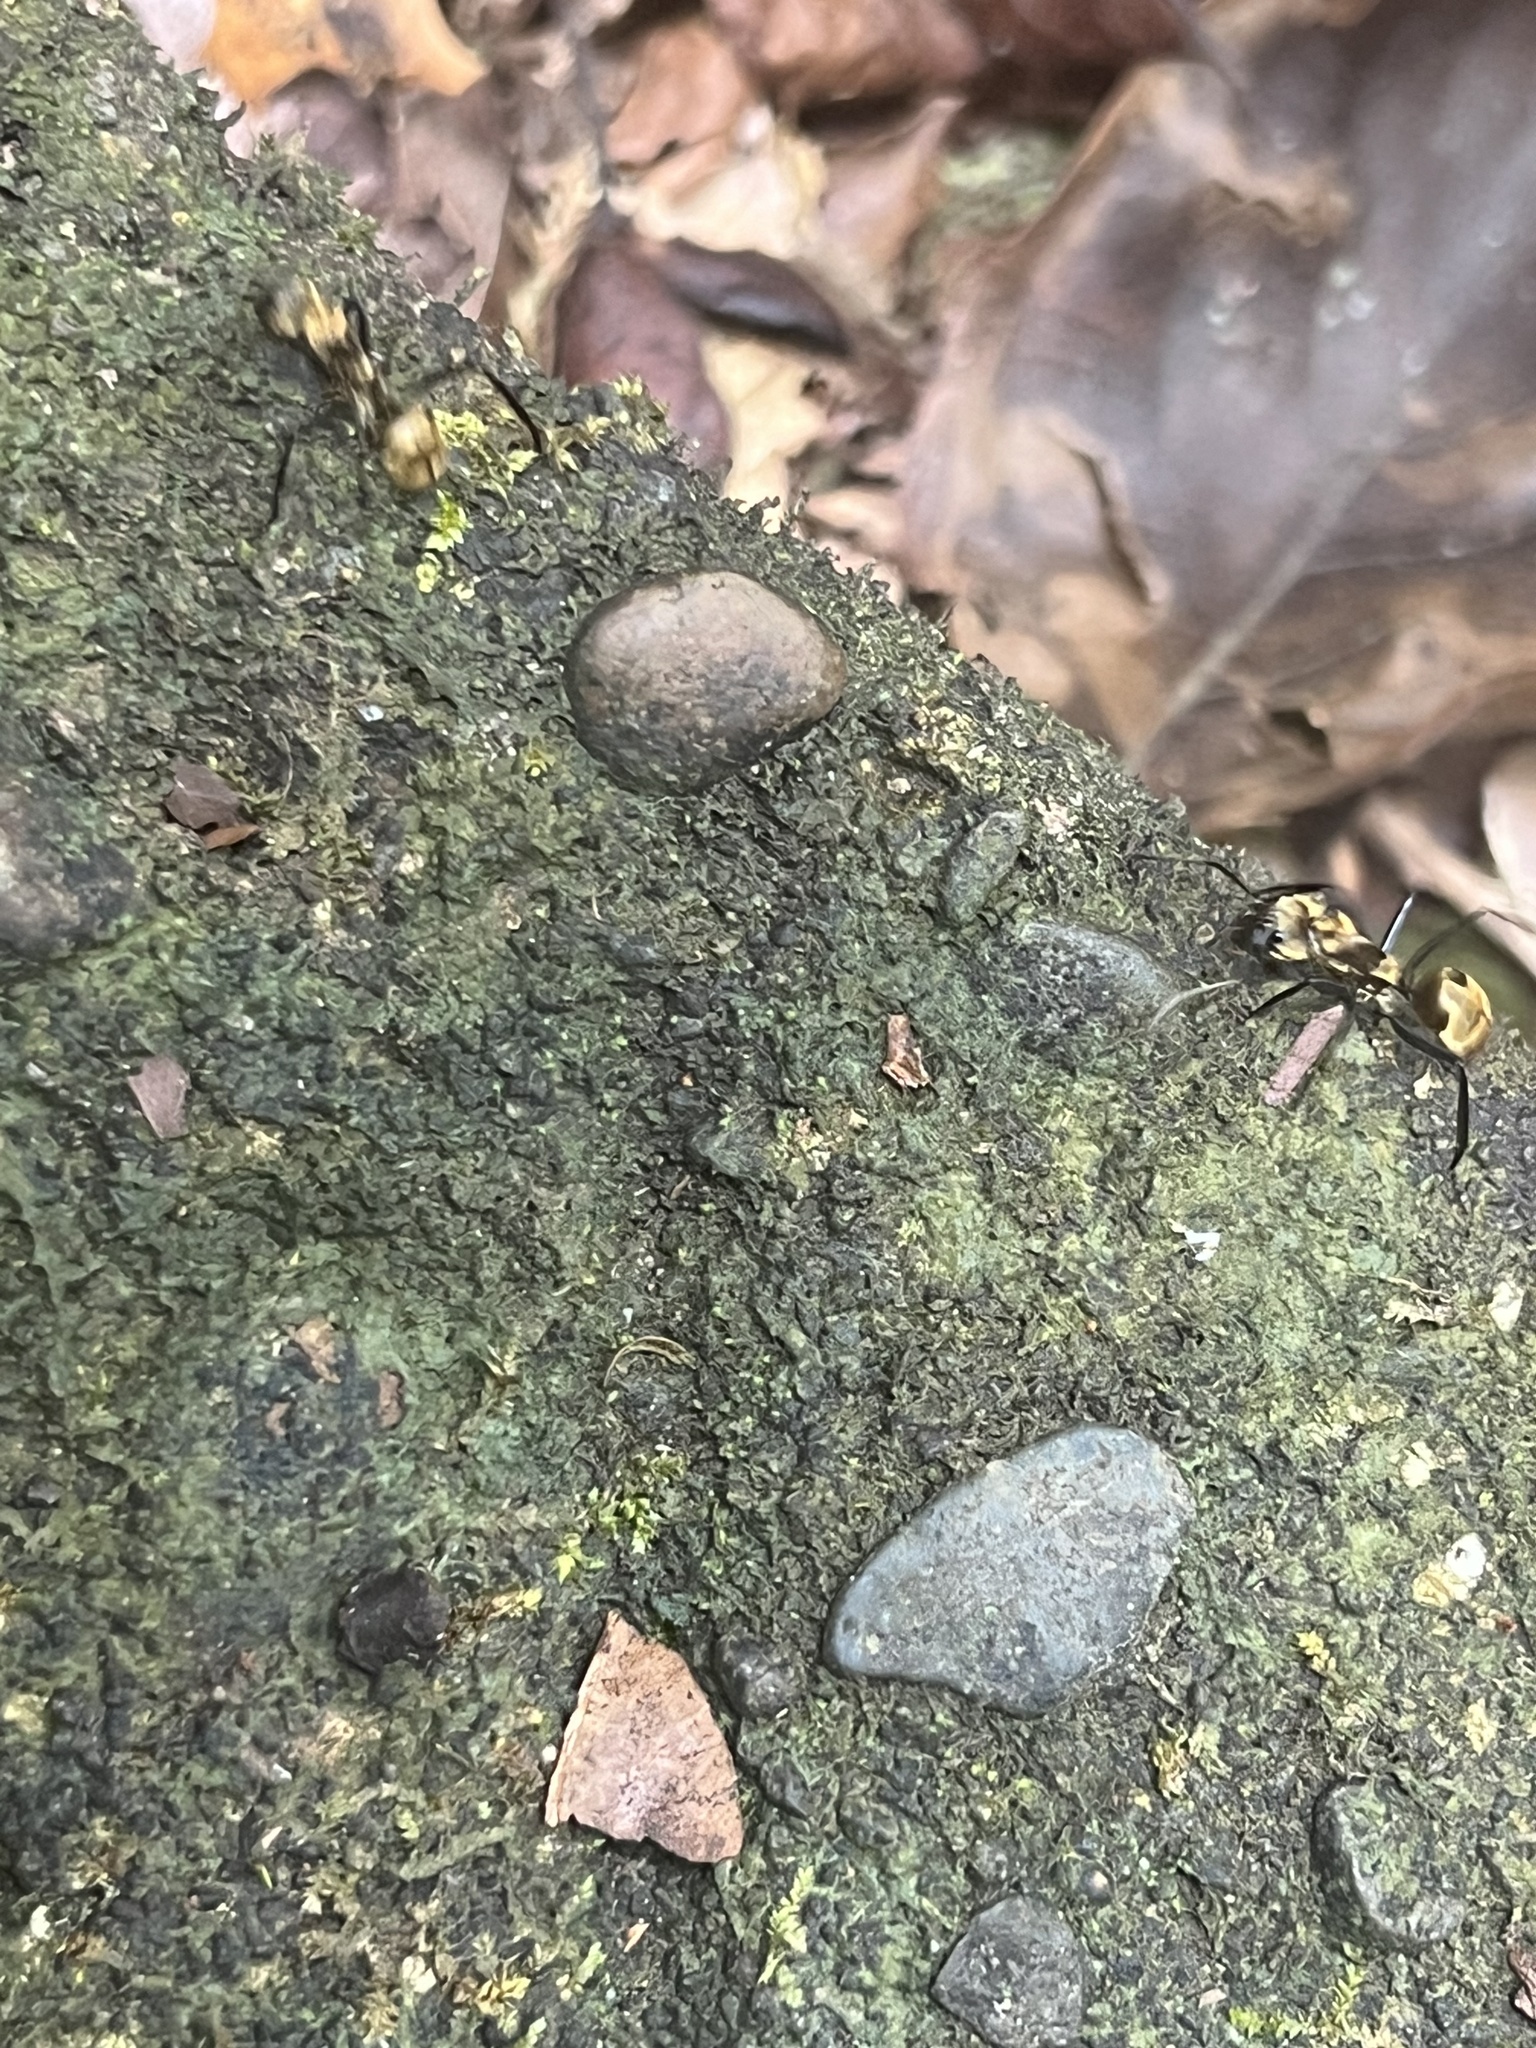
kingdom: Animalia
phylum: Arthropoda
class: Insecta
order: Hymenoptera
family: Formicidae
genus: Camponotus
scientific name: Camponotus sericeiventris
